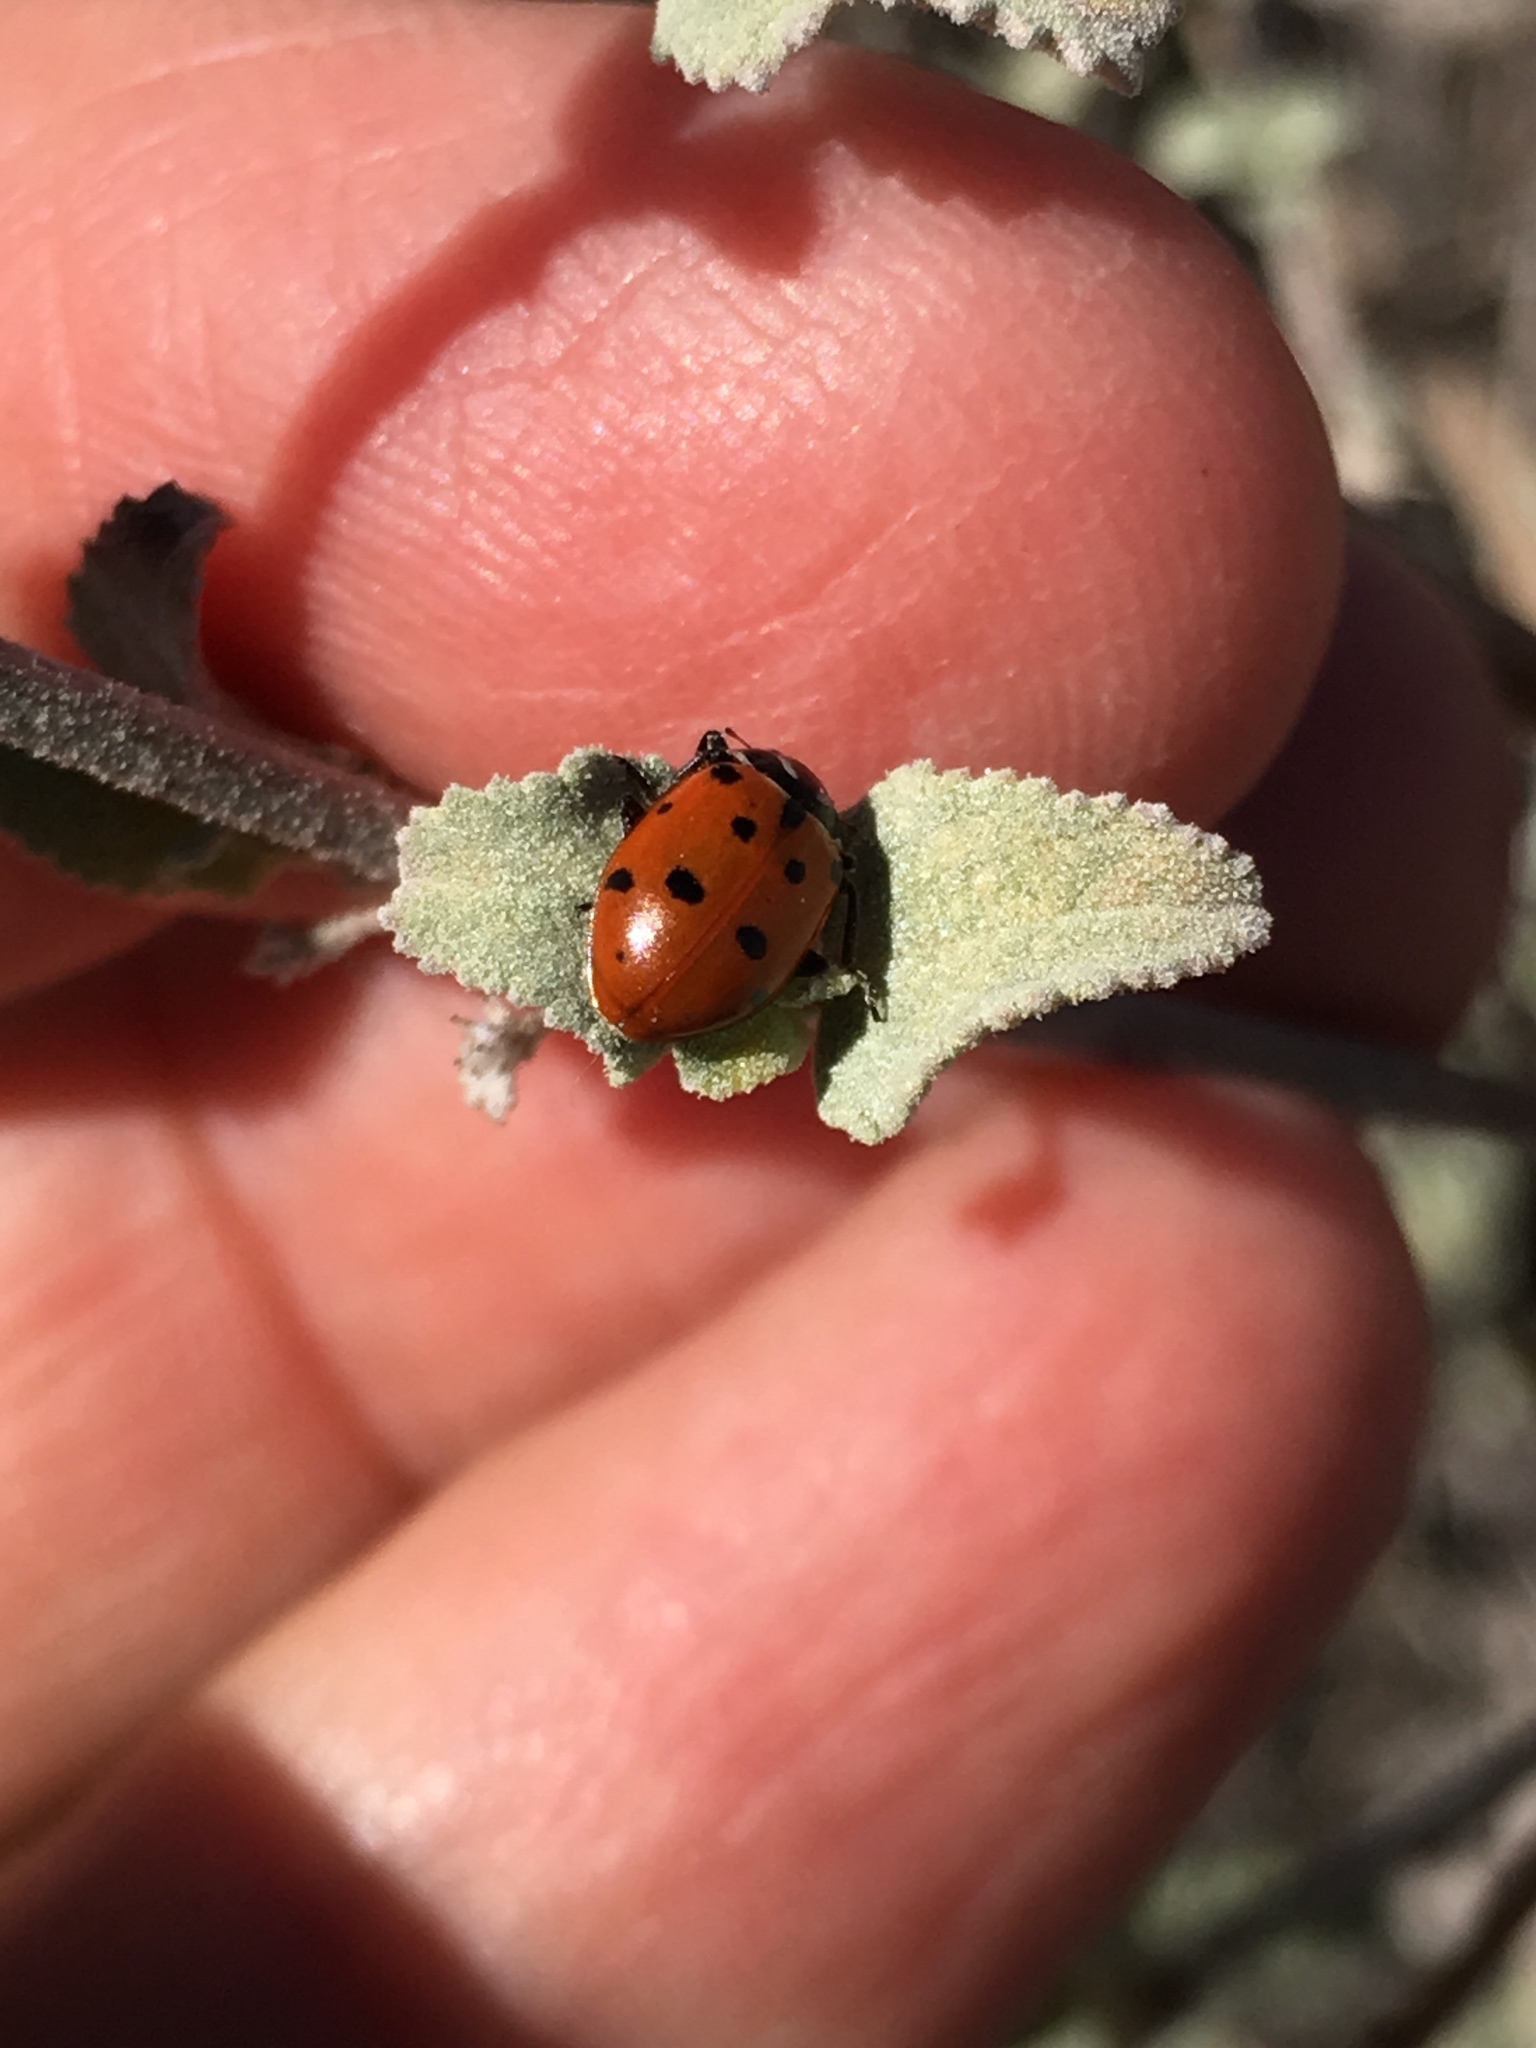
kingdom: Animalia
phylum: Arthropoda
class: Insecta
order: Coleoptera
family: Coccinellidae
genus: Hippodamia
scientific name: Hippodamia convergens
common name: Convergent lady beetle
